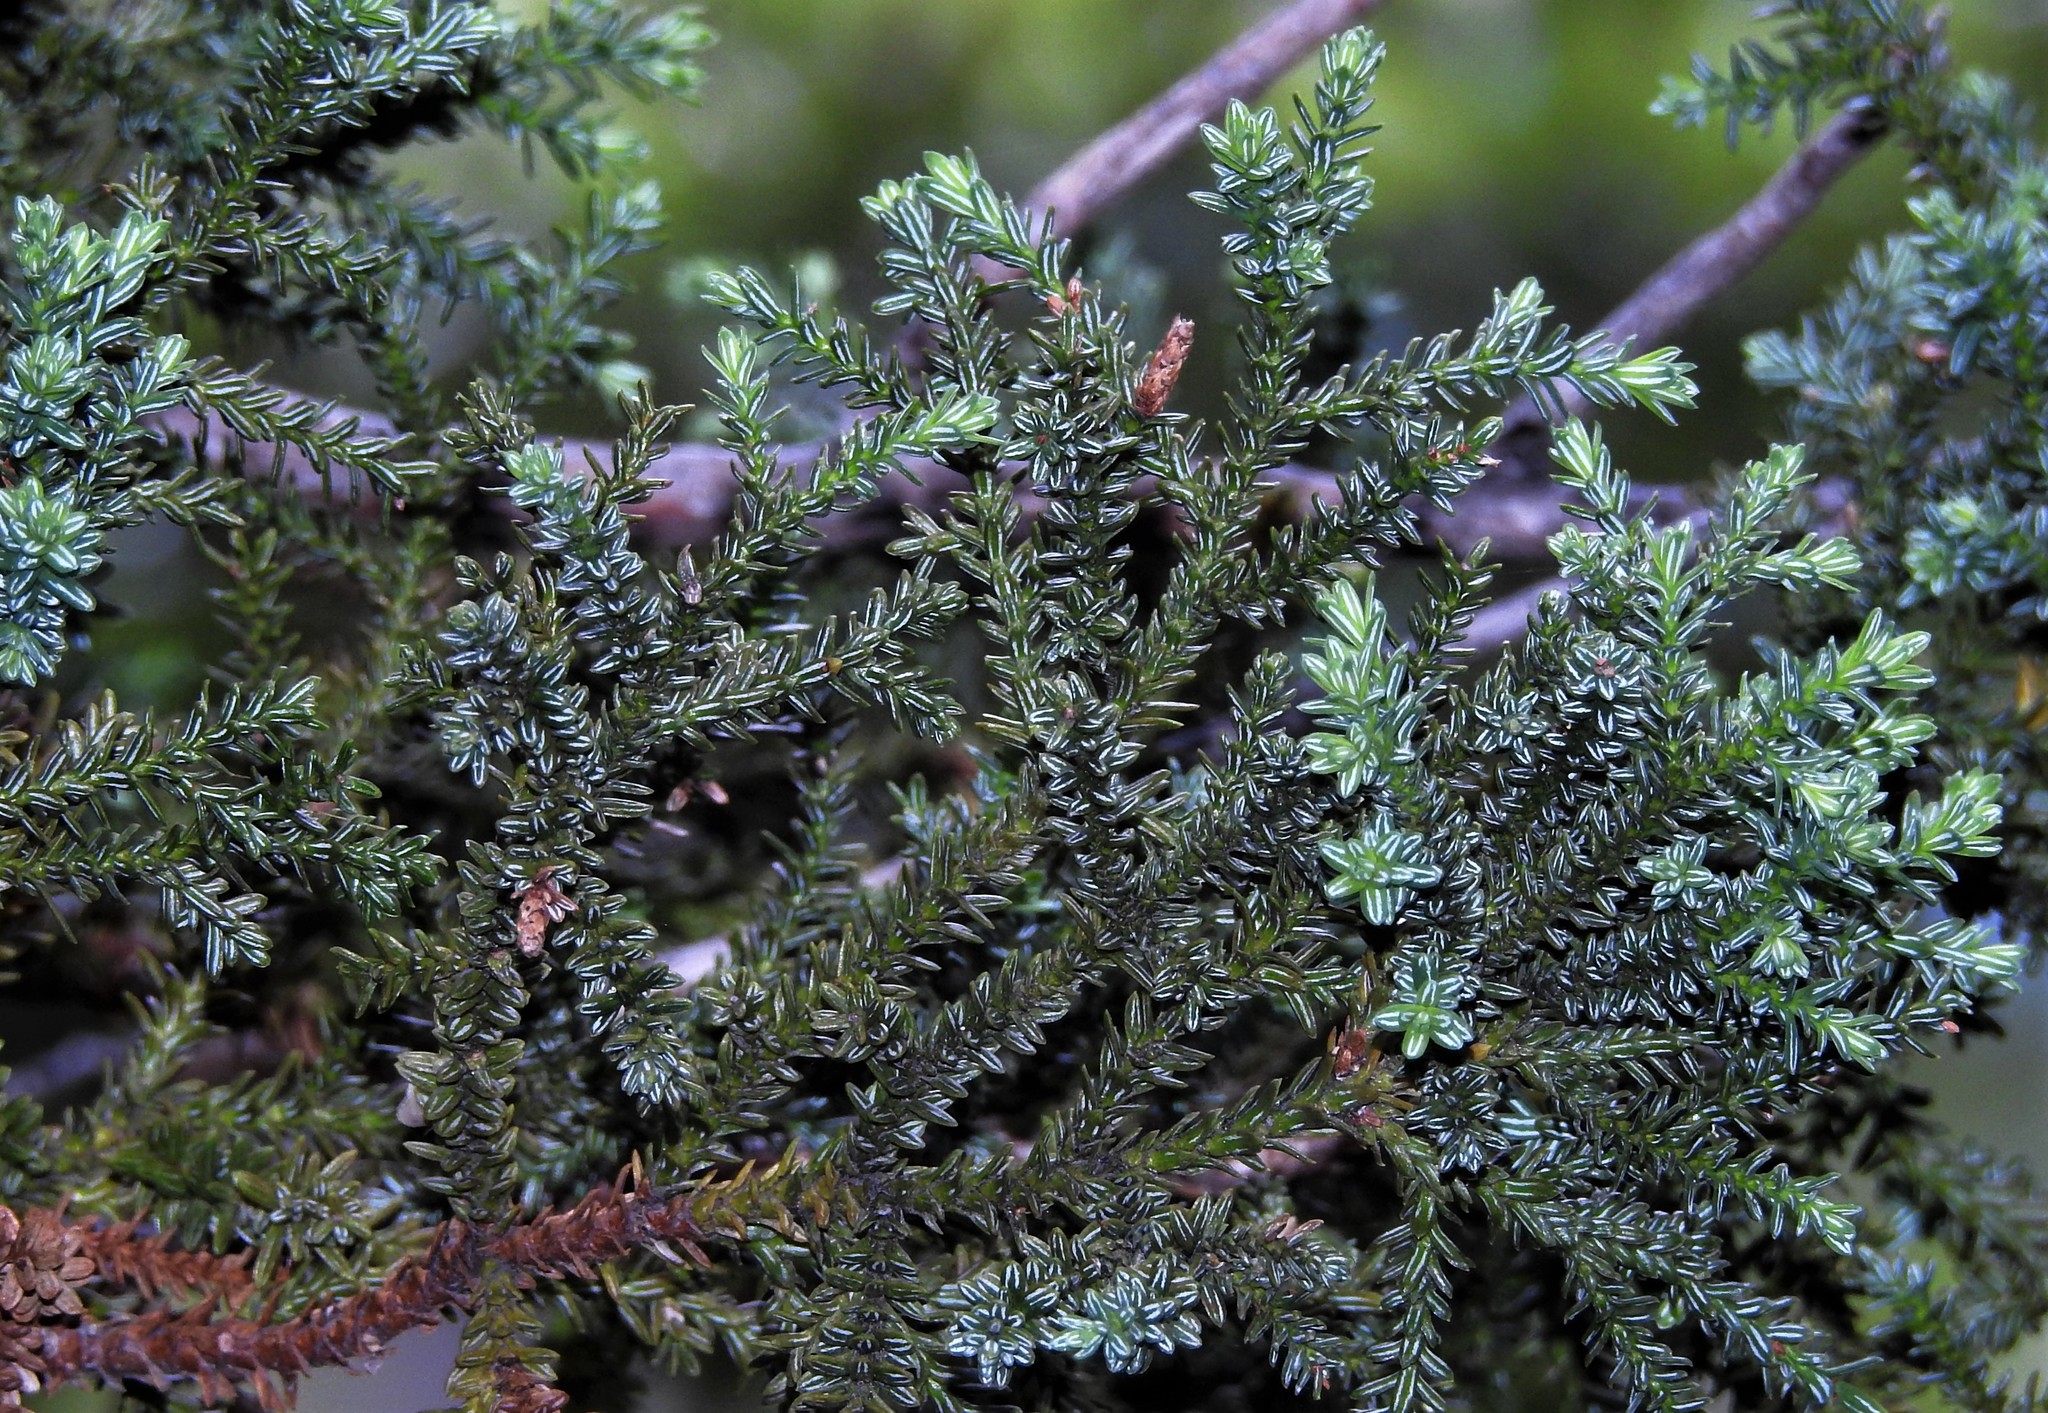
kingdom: Plantae
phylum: Tracheophyta
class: Pinopsida
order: Pinales
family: Cupressaceae
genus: Fitzroya
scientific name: Fitzroya cupressoides
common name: Patagonian cypress
